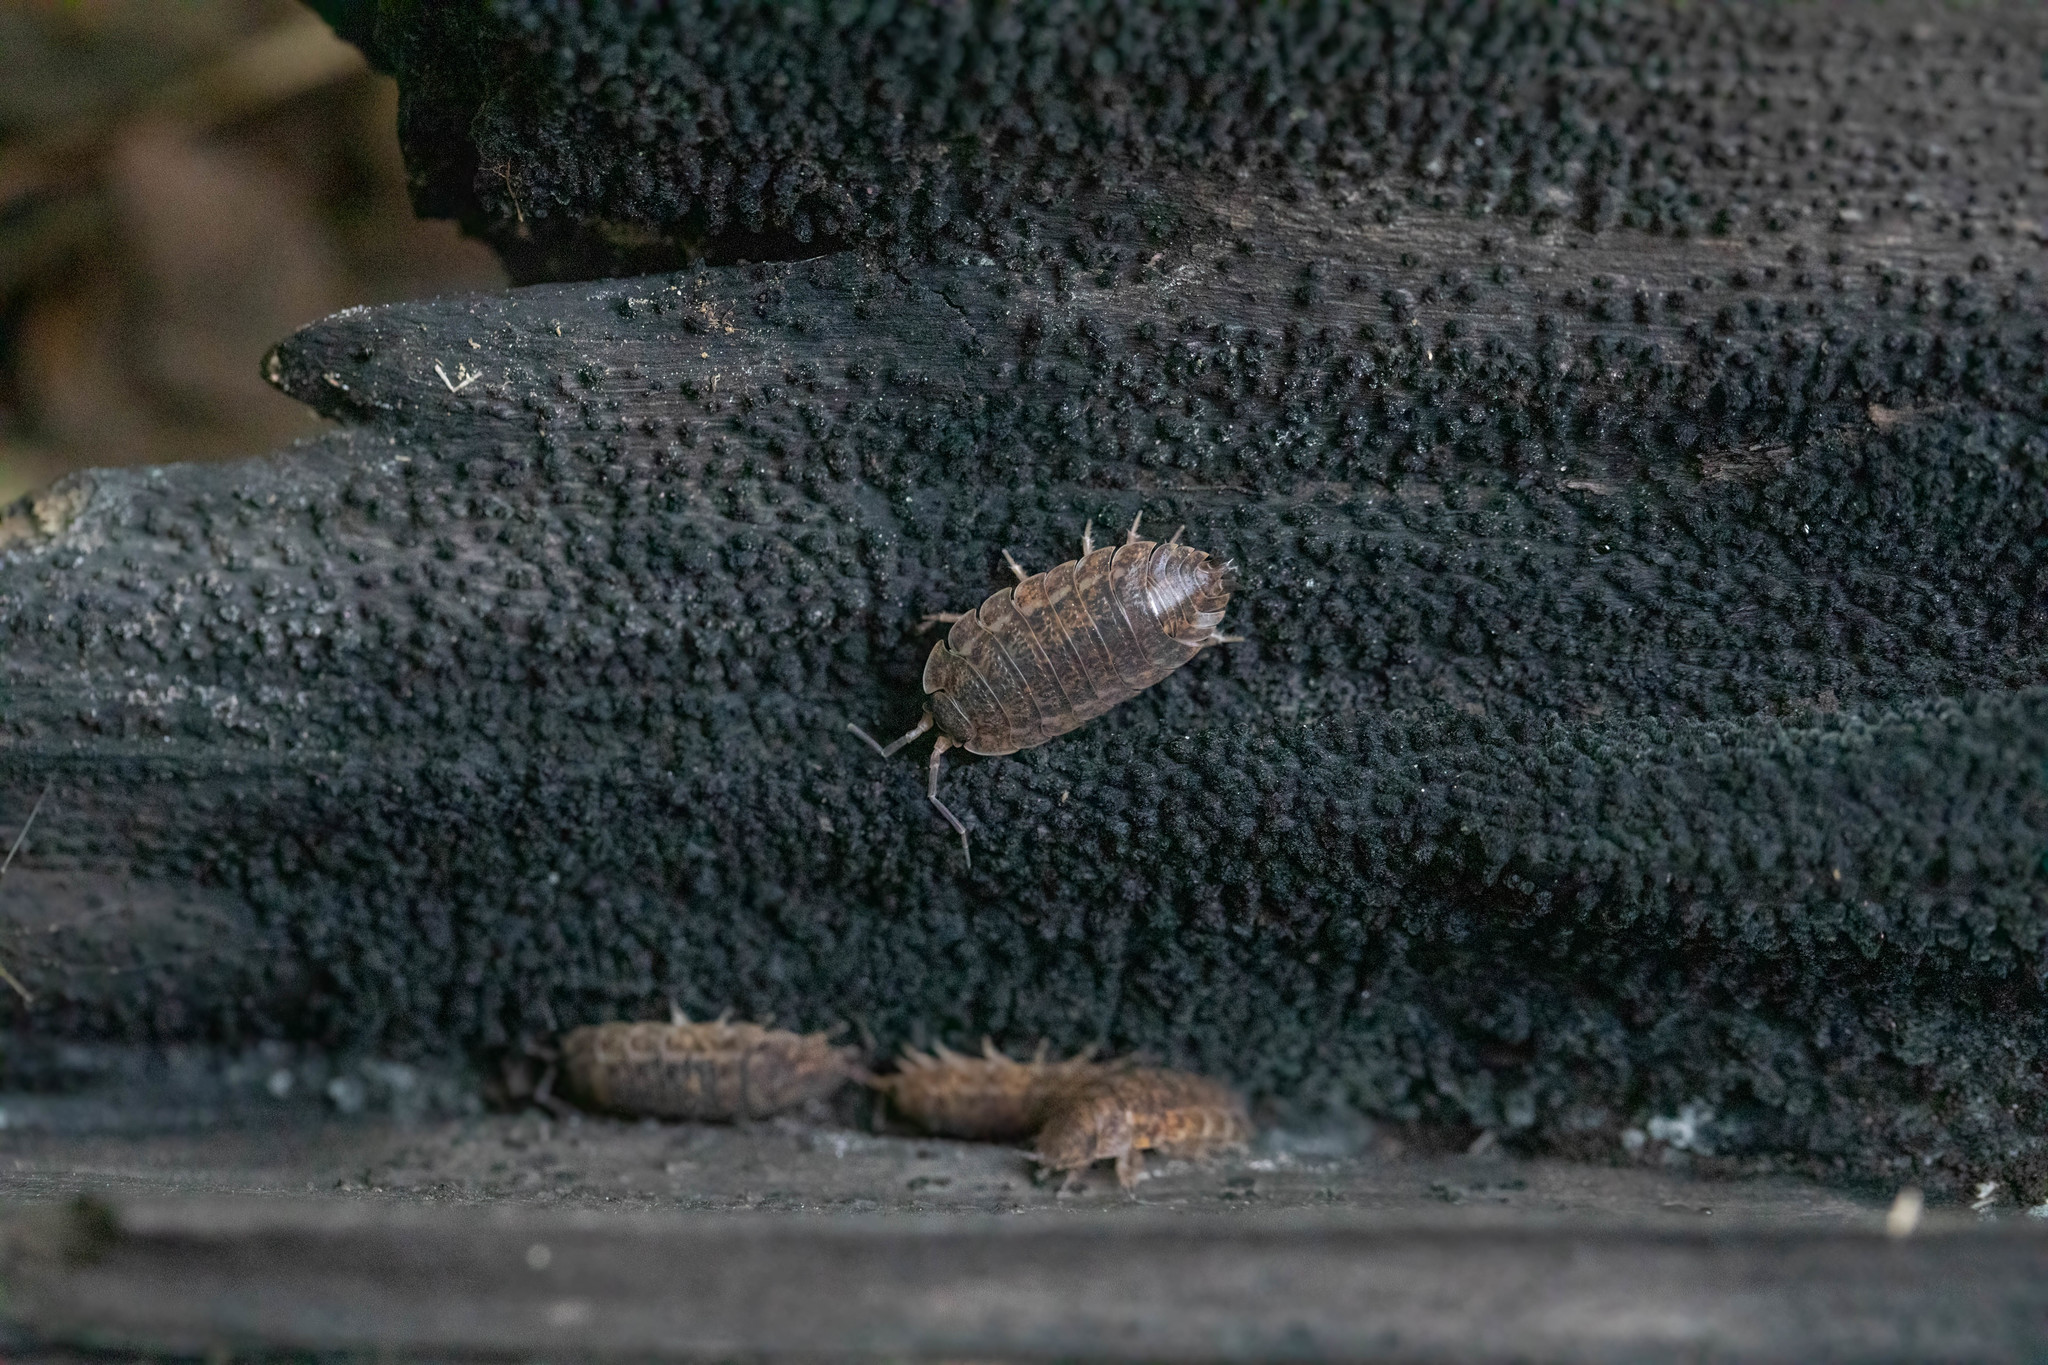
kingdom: Animalia
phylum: Arthropoda
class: Malacostraca
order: Isopoda
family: Trachelipodidae
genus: Trachelipus
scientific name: Trachelipus rathkii
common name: Isopod
